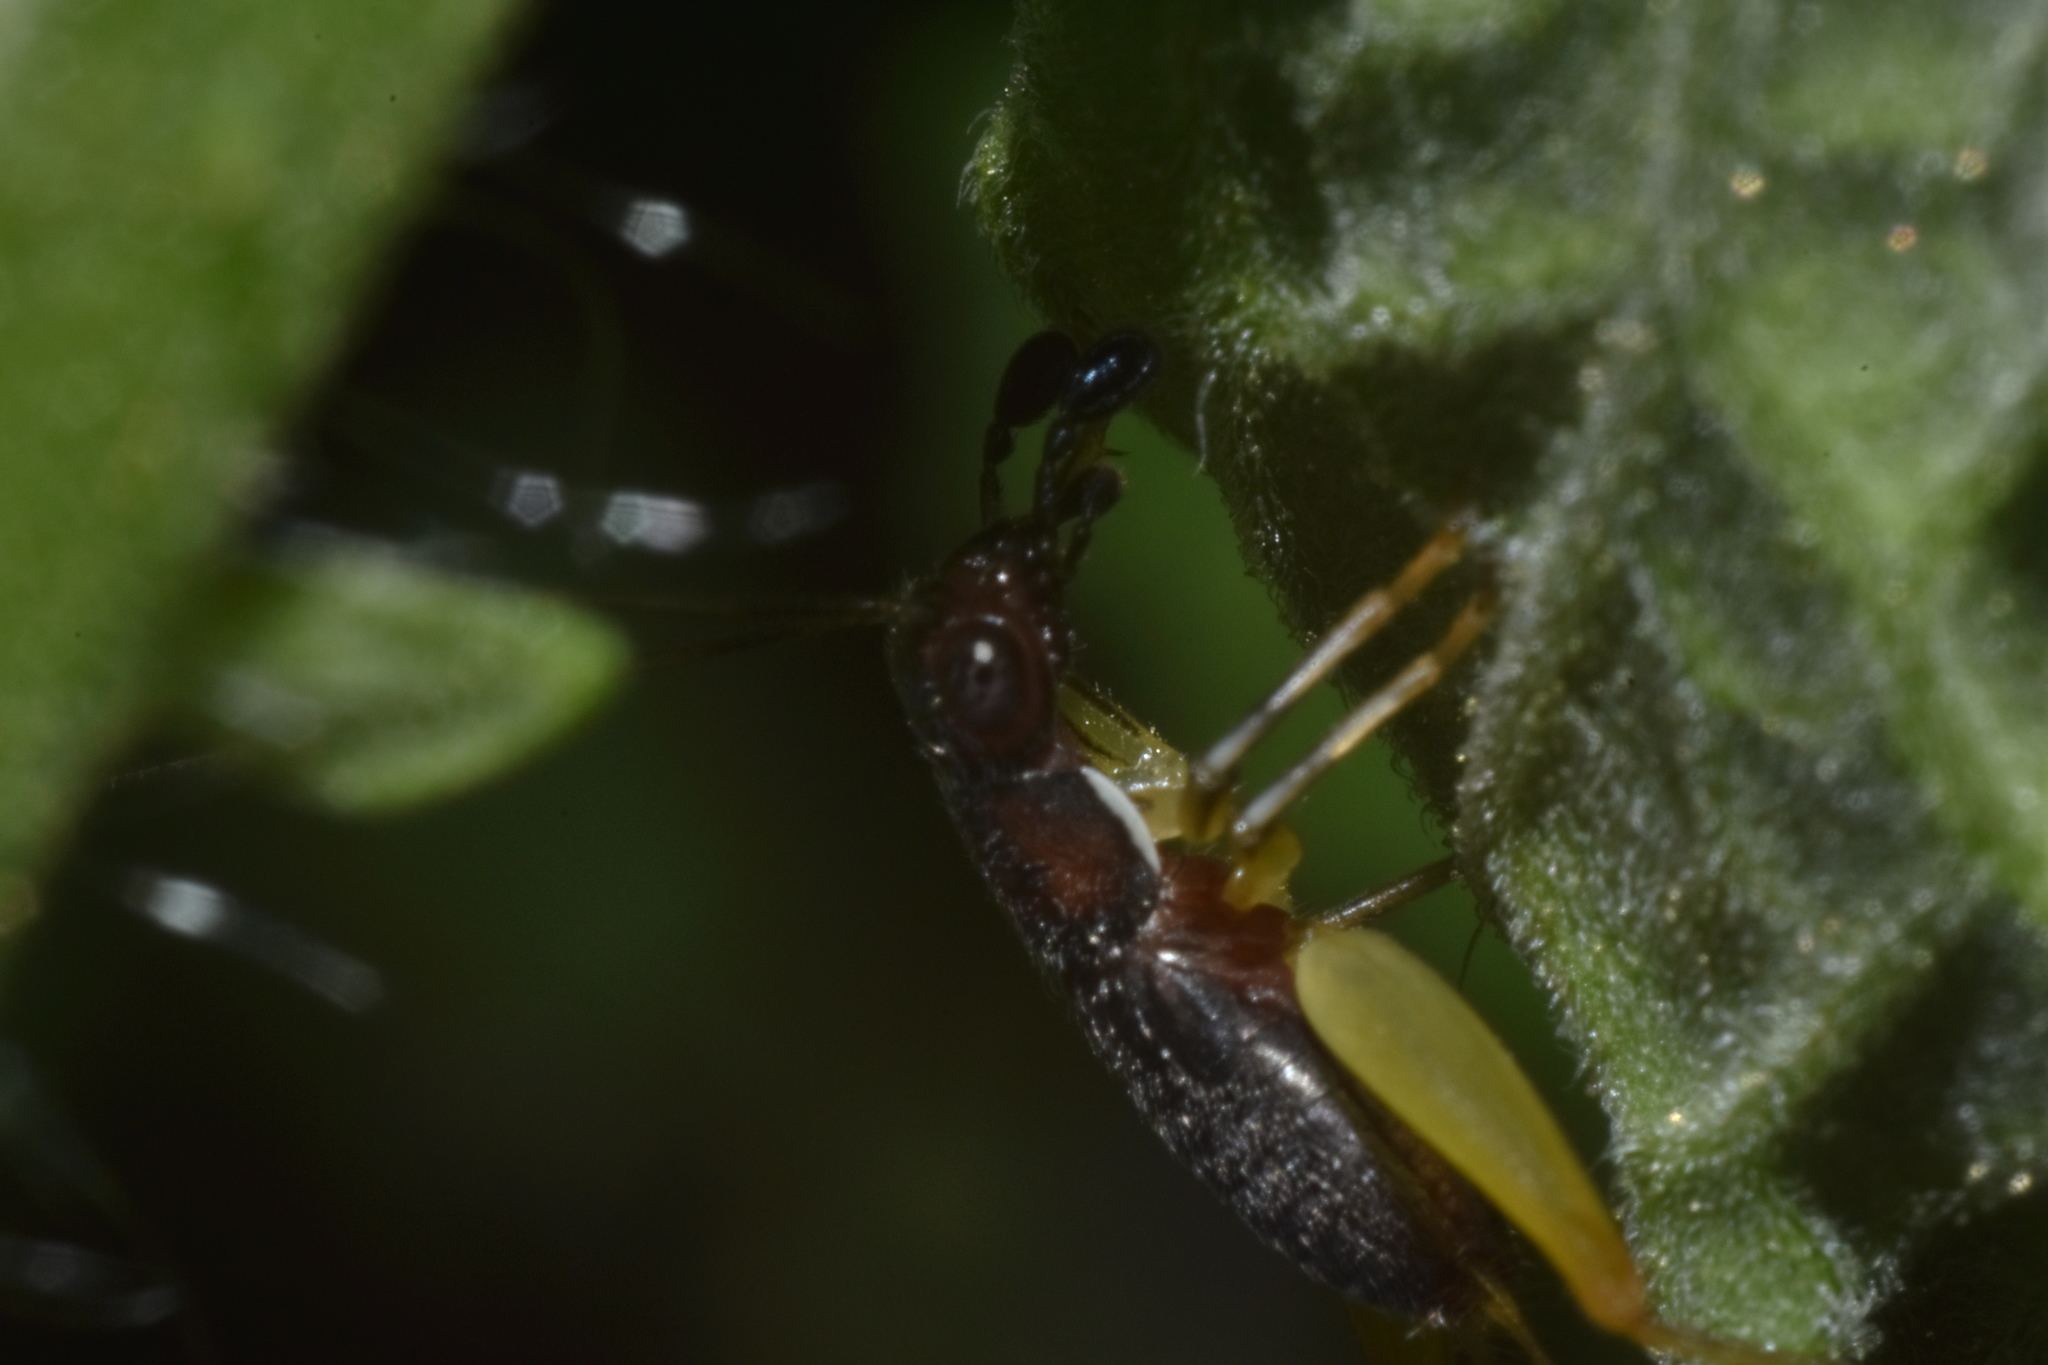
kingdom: Animalia
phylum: Arthropoda
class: Insecta
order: Orthoptera
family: Trigonidiidae
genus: Phyllopalpus
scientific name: Phyllopalpus pulchellus
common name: Handsome trig
